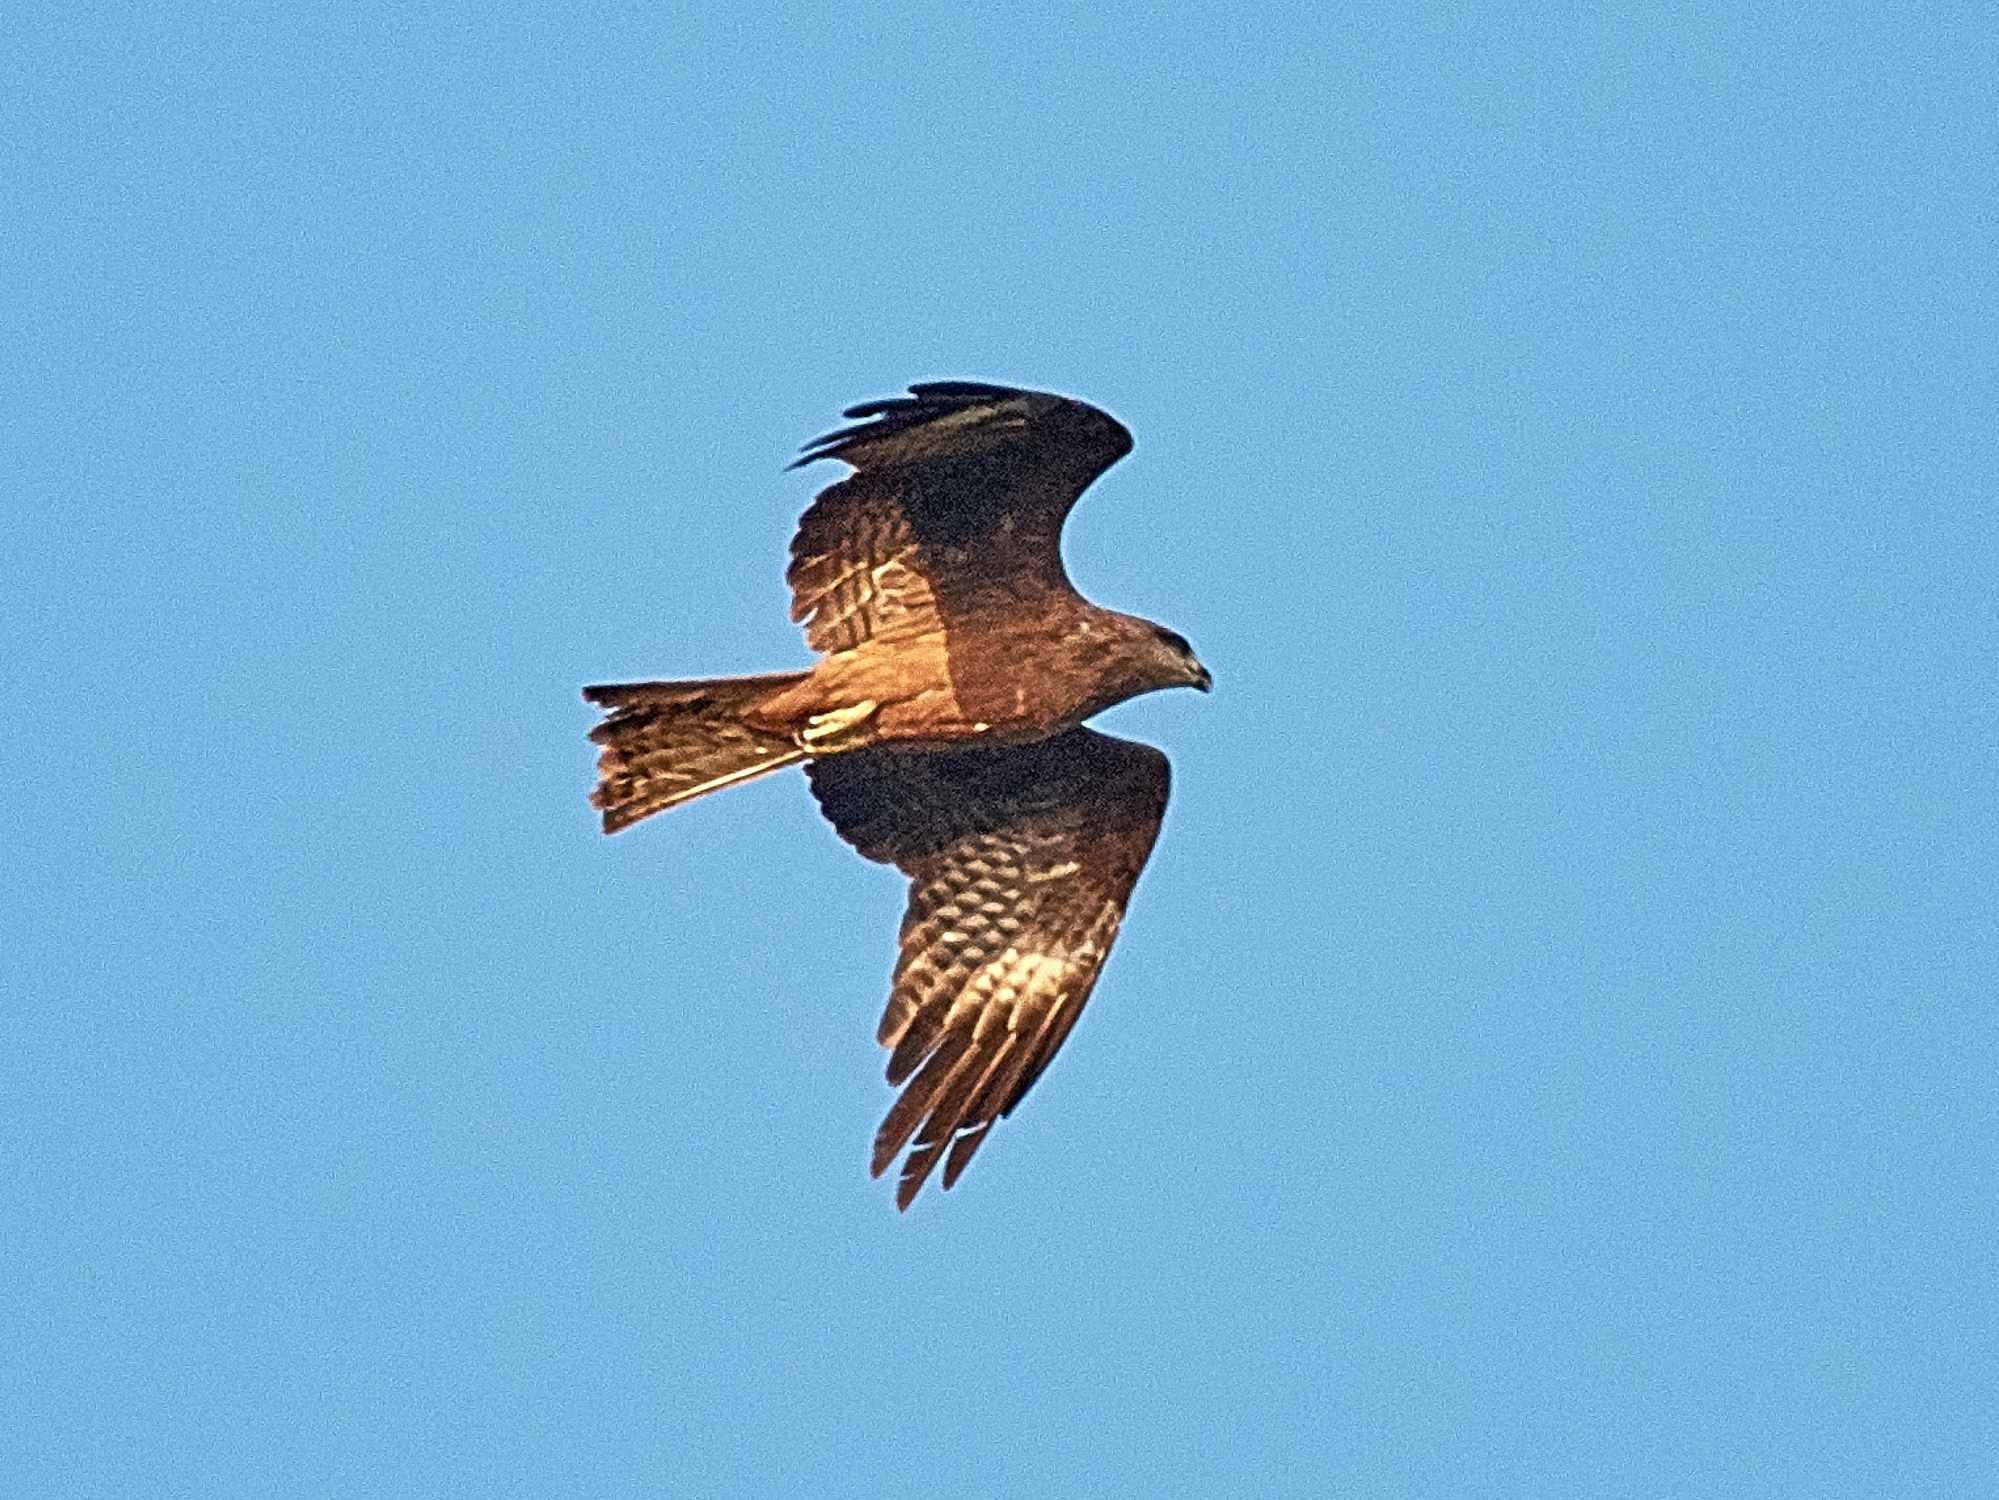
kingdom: Animalia
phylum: Chordata
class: Aves
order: Accipitriformes
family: Accipitridae
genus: Milvus
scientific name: Milvus migrans
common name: Black kite
